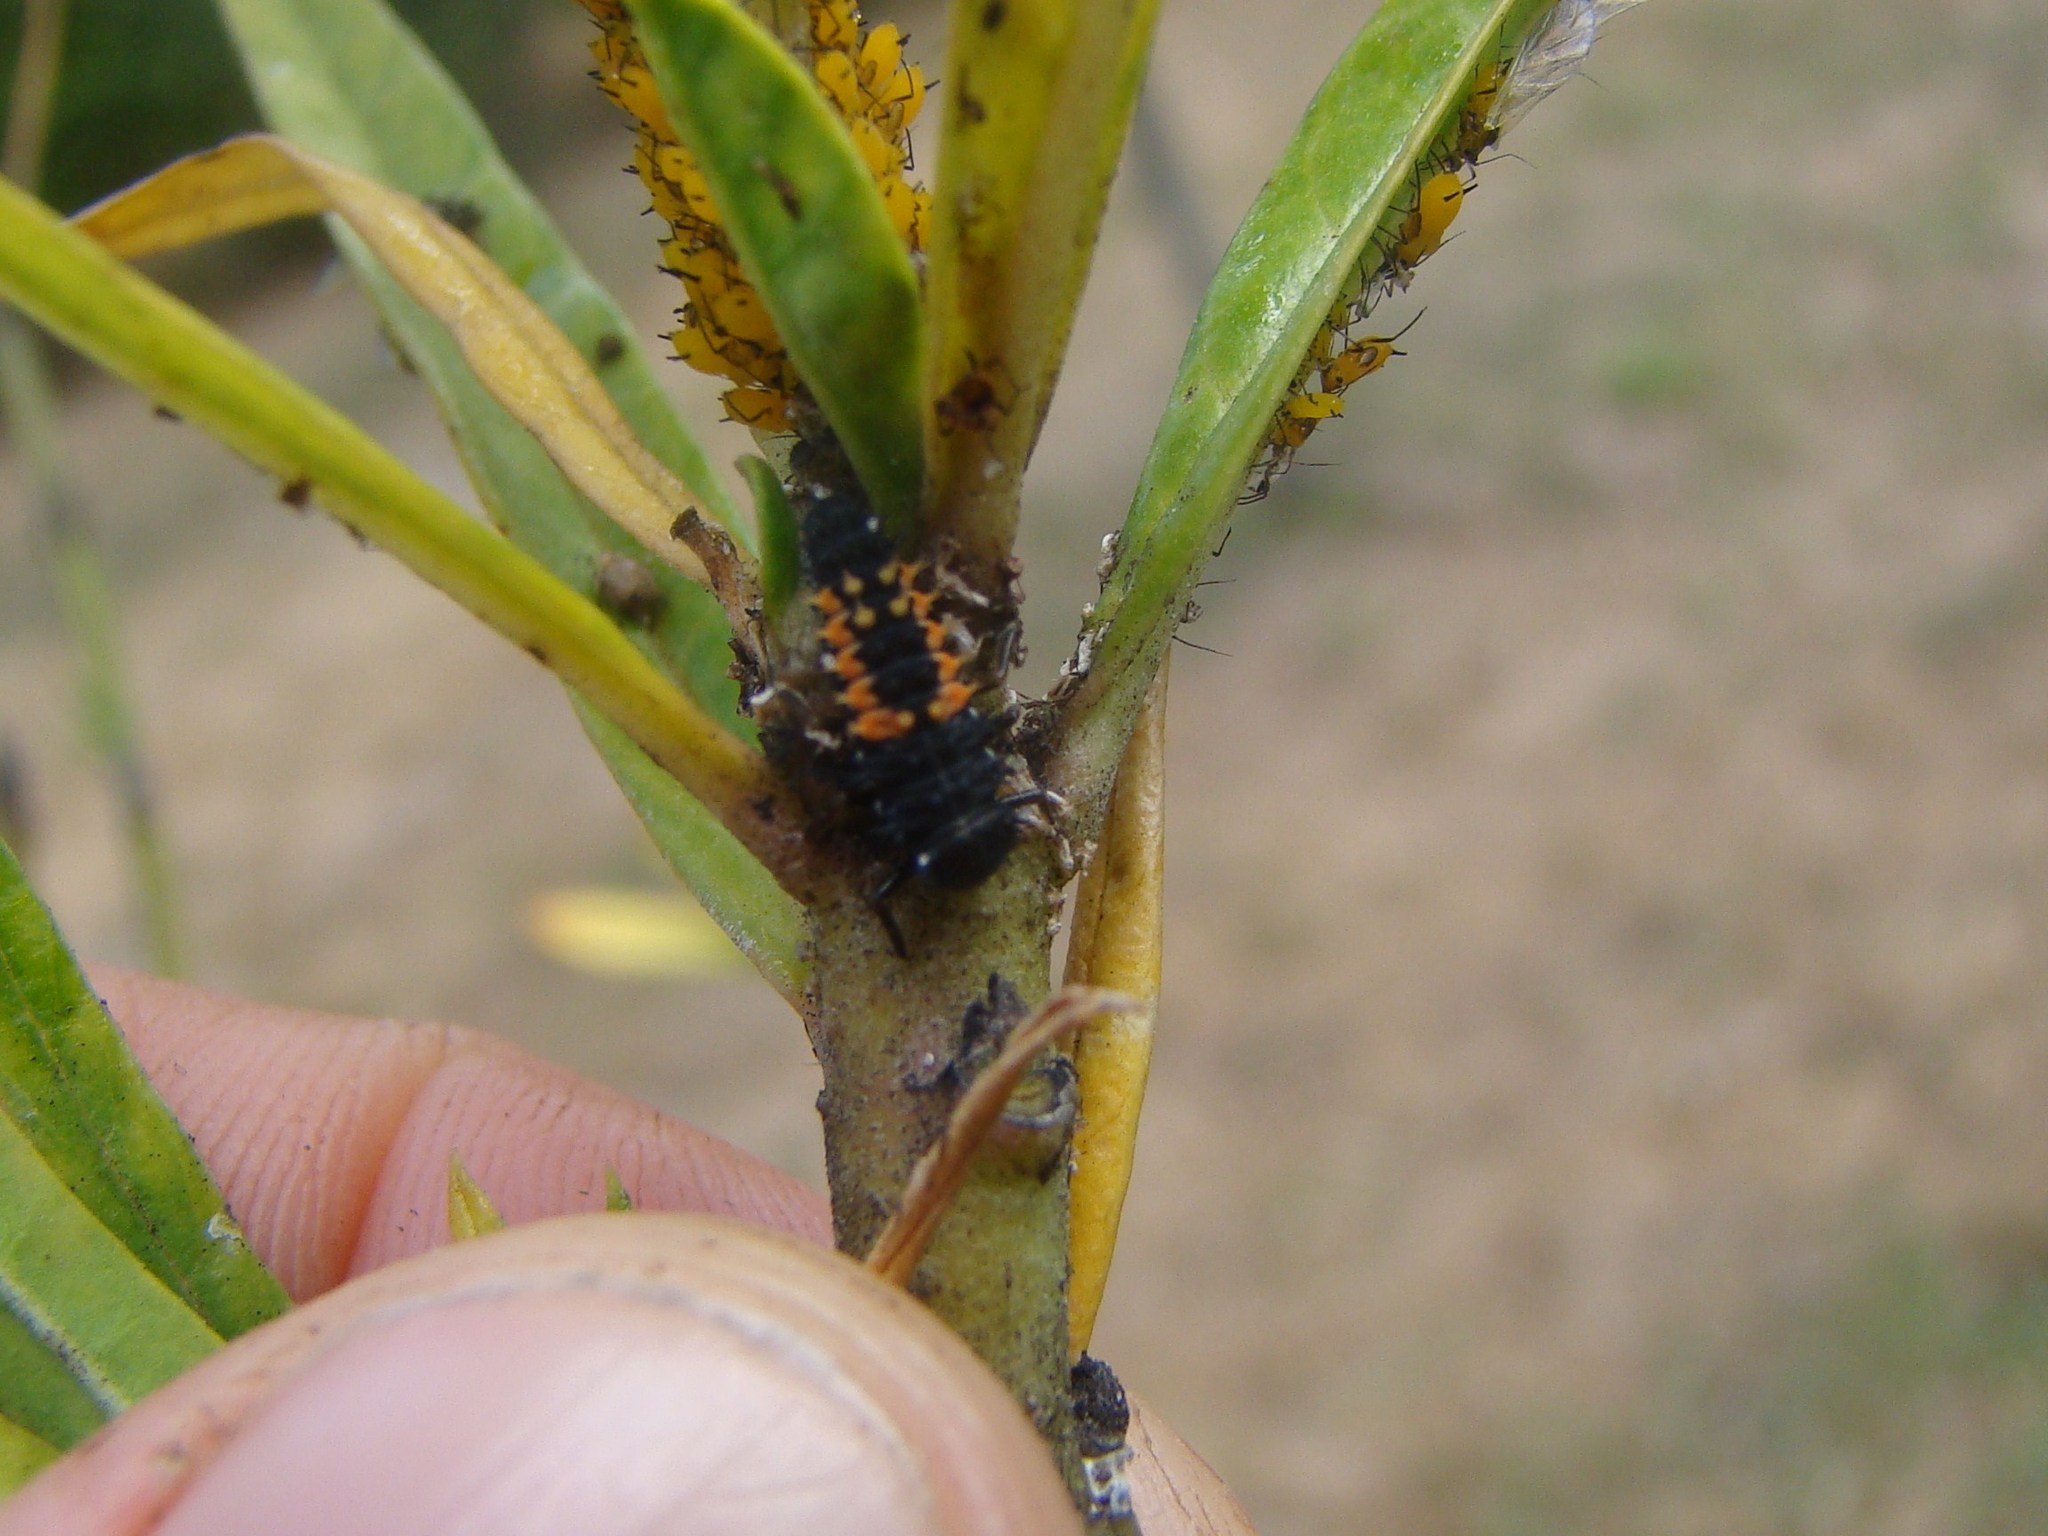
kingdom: Animalia
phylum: Arthropoda
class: Insecta
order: Coleoptera
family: Coccinellidae
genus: Harmonia
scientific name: Harmonia axyridis
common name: Harlequin ladybird
